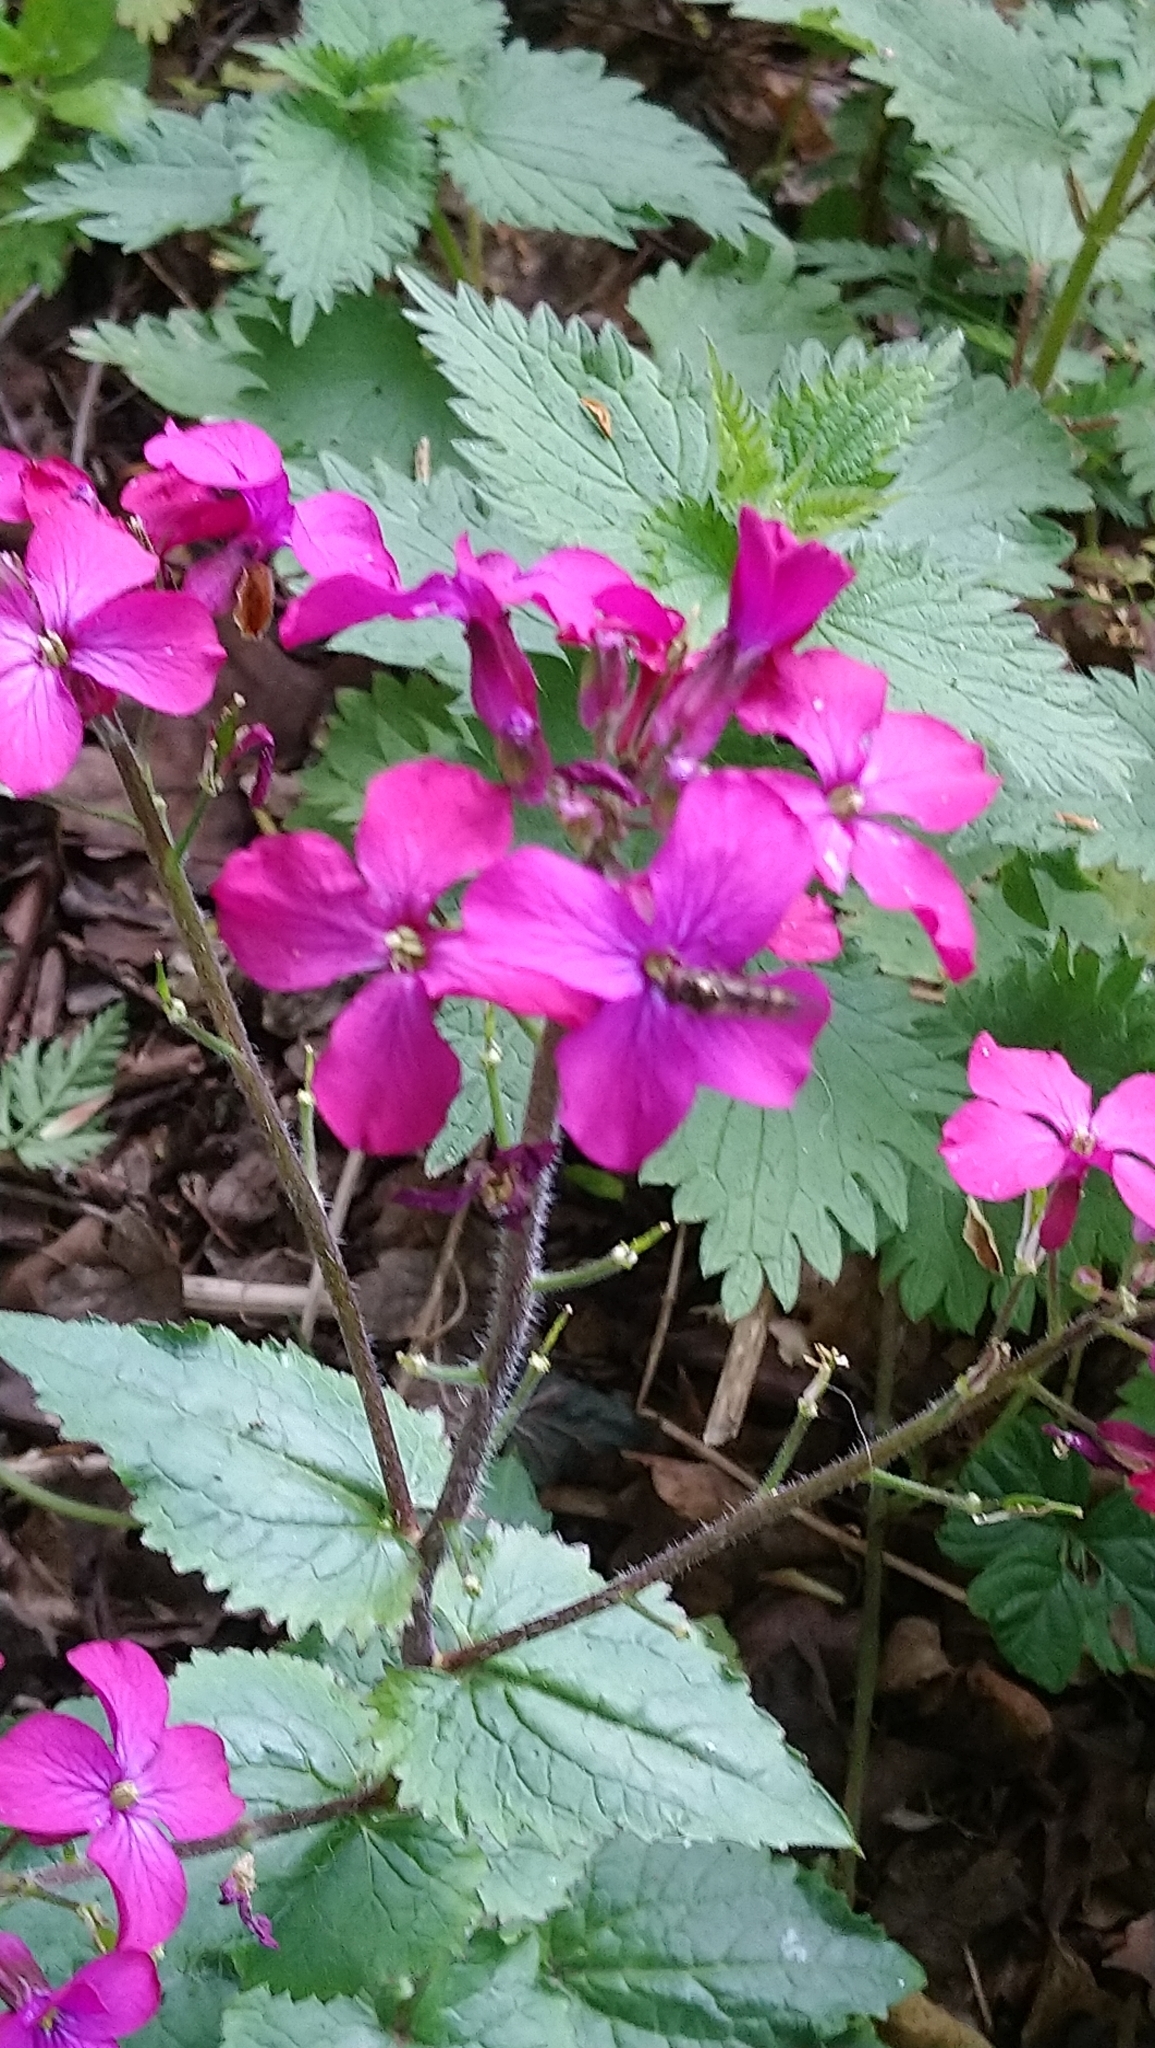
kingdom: Plantae
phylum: Tracheophyta
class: Magnoliopsida
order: Brassicales
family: Brassicaceae
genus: Lunaria
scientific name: Lunaria annua
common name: Honesty
